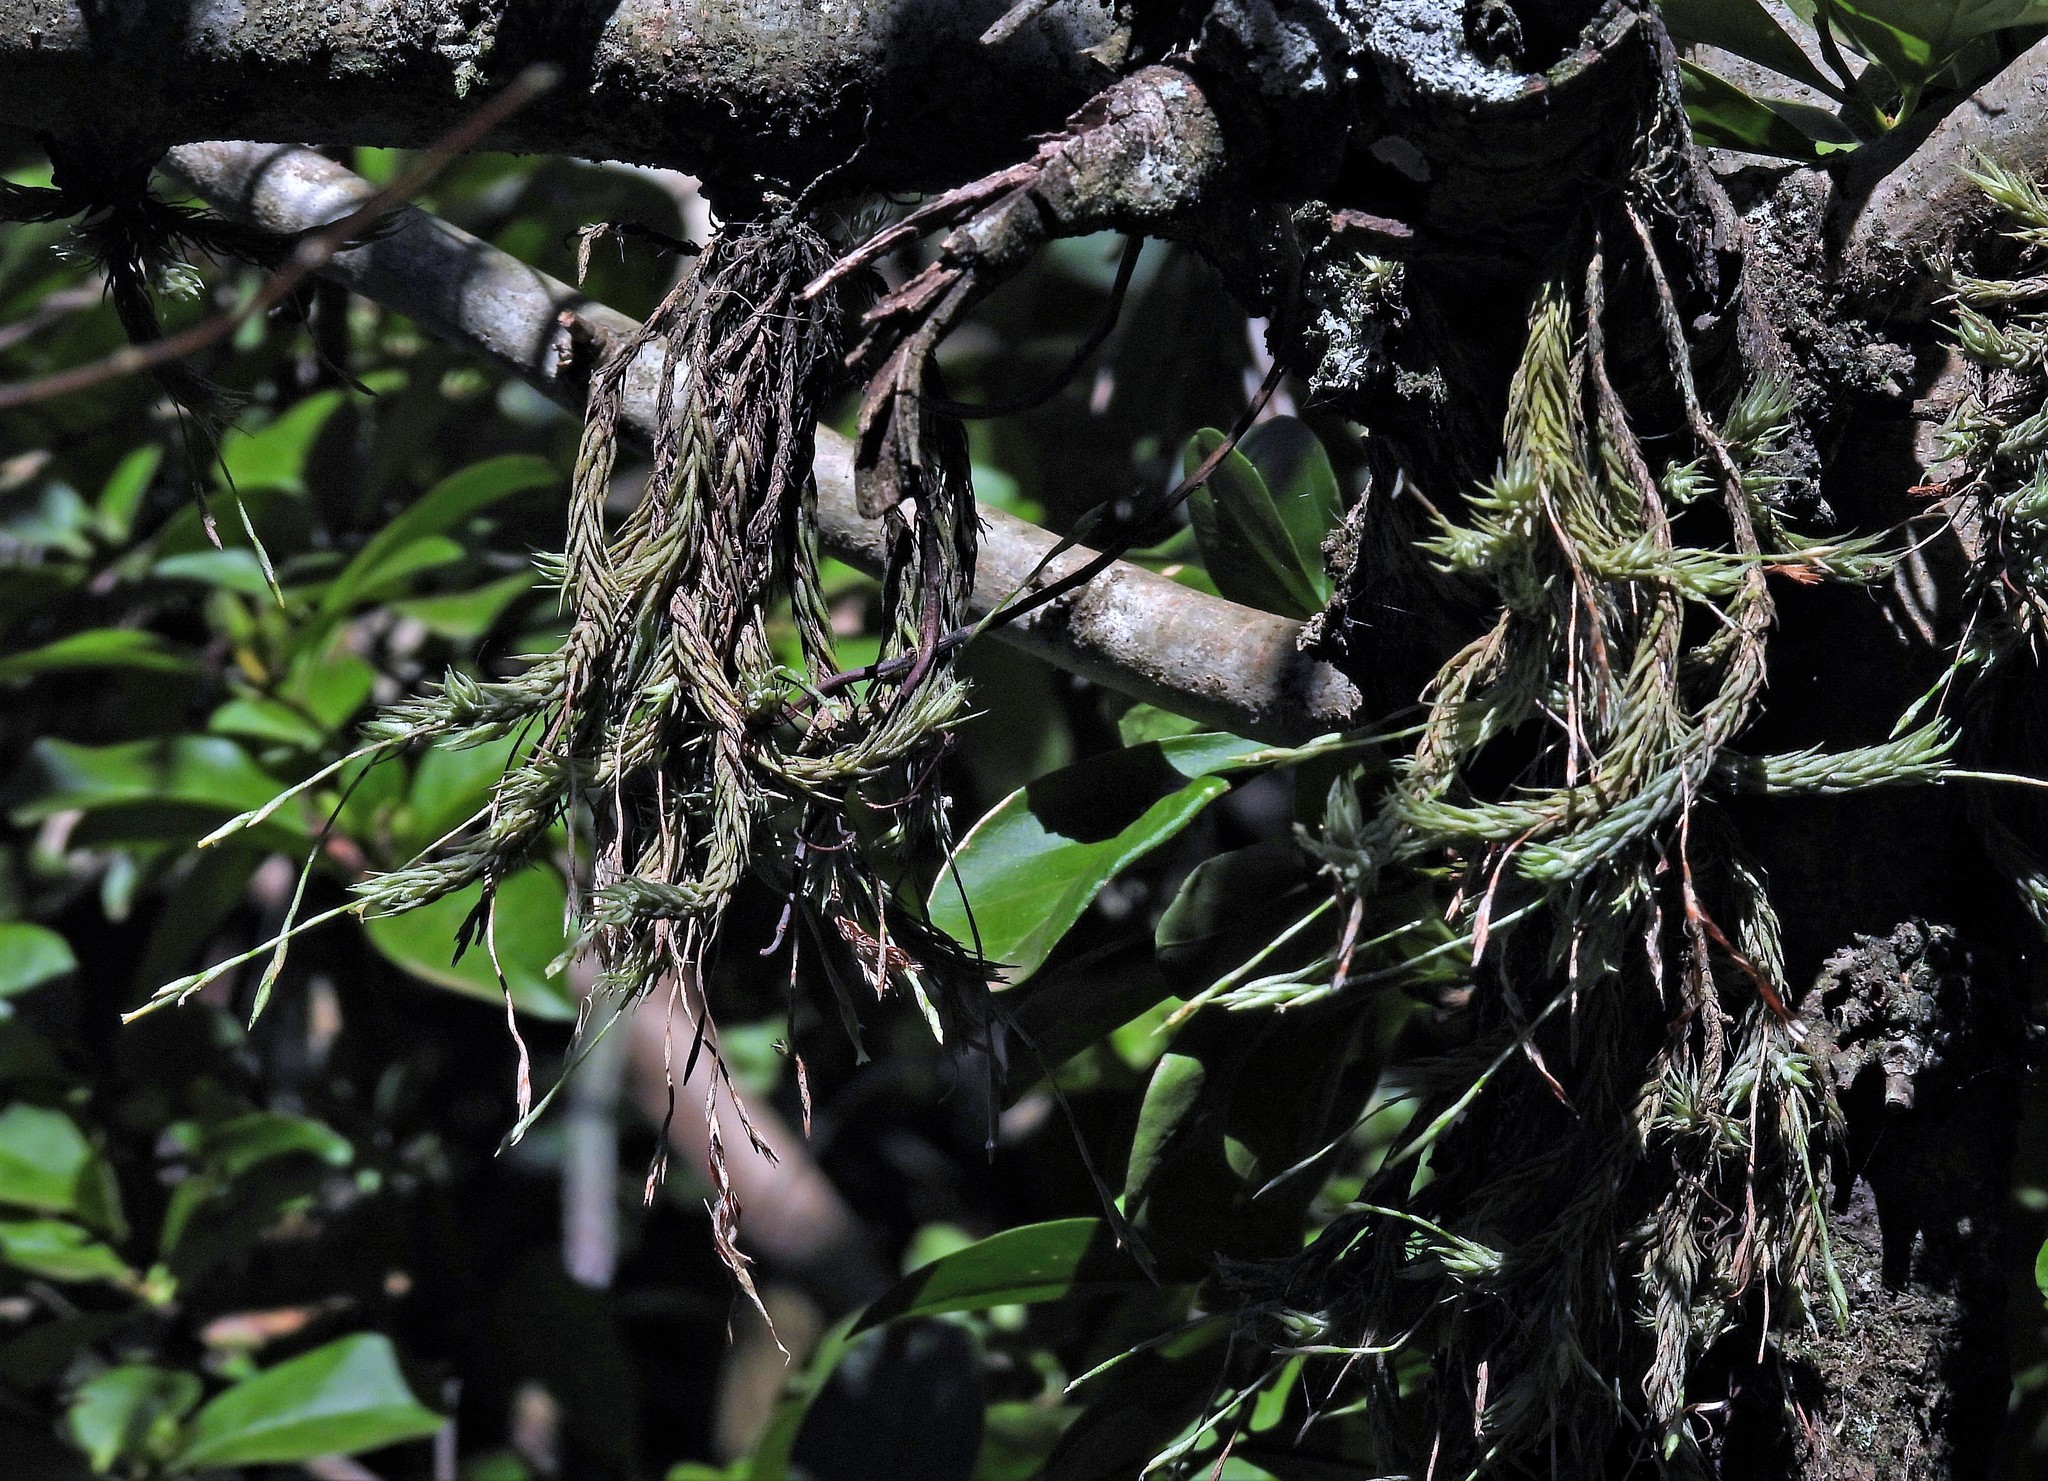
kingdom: Plantae
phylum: Tracheophyta
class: Liliopsida
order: Poales
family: Bromeliaceae
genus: Tillandsia
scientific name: Tillandsia tricholepis
